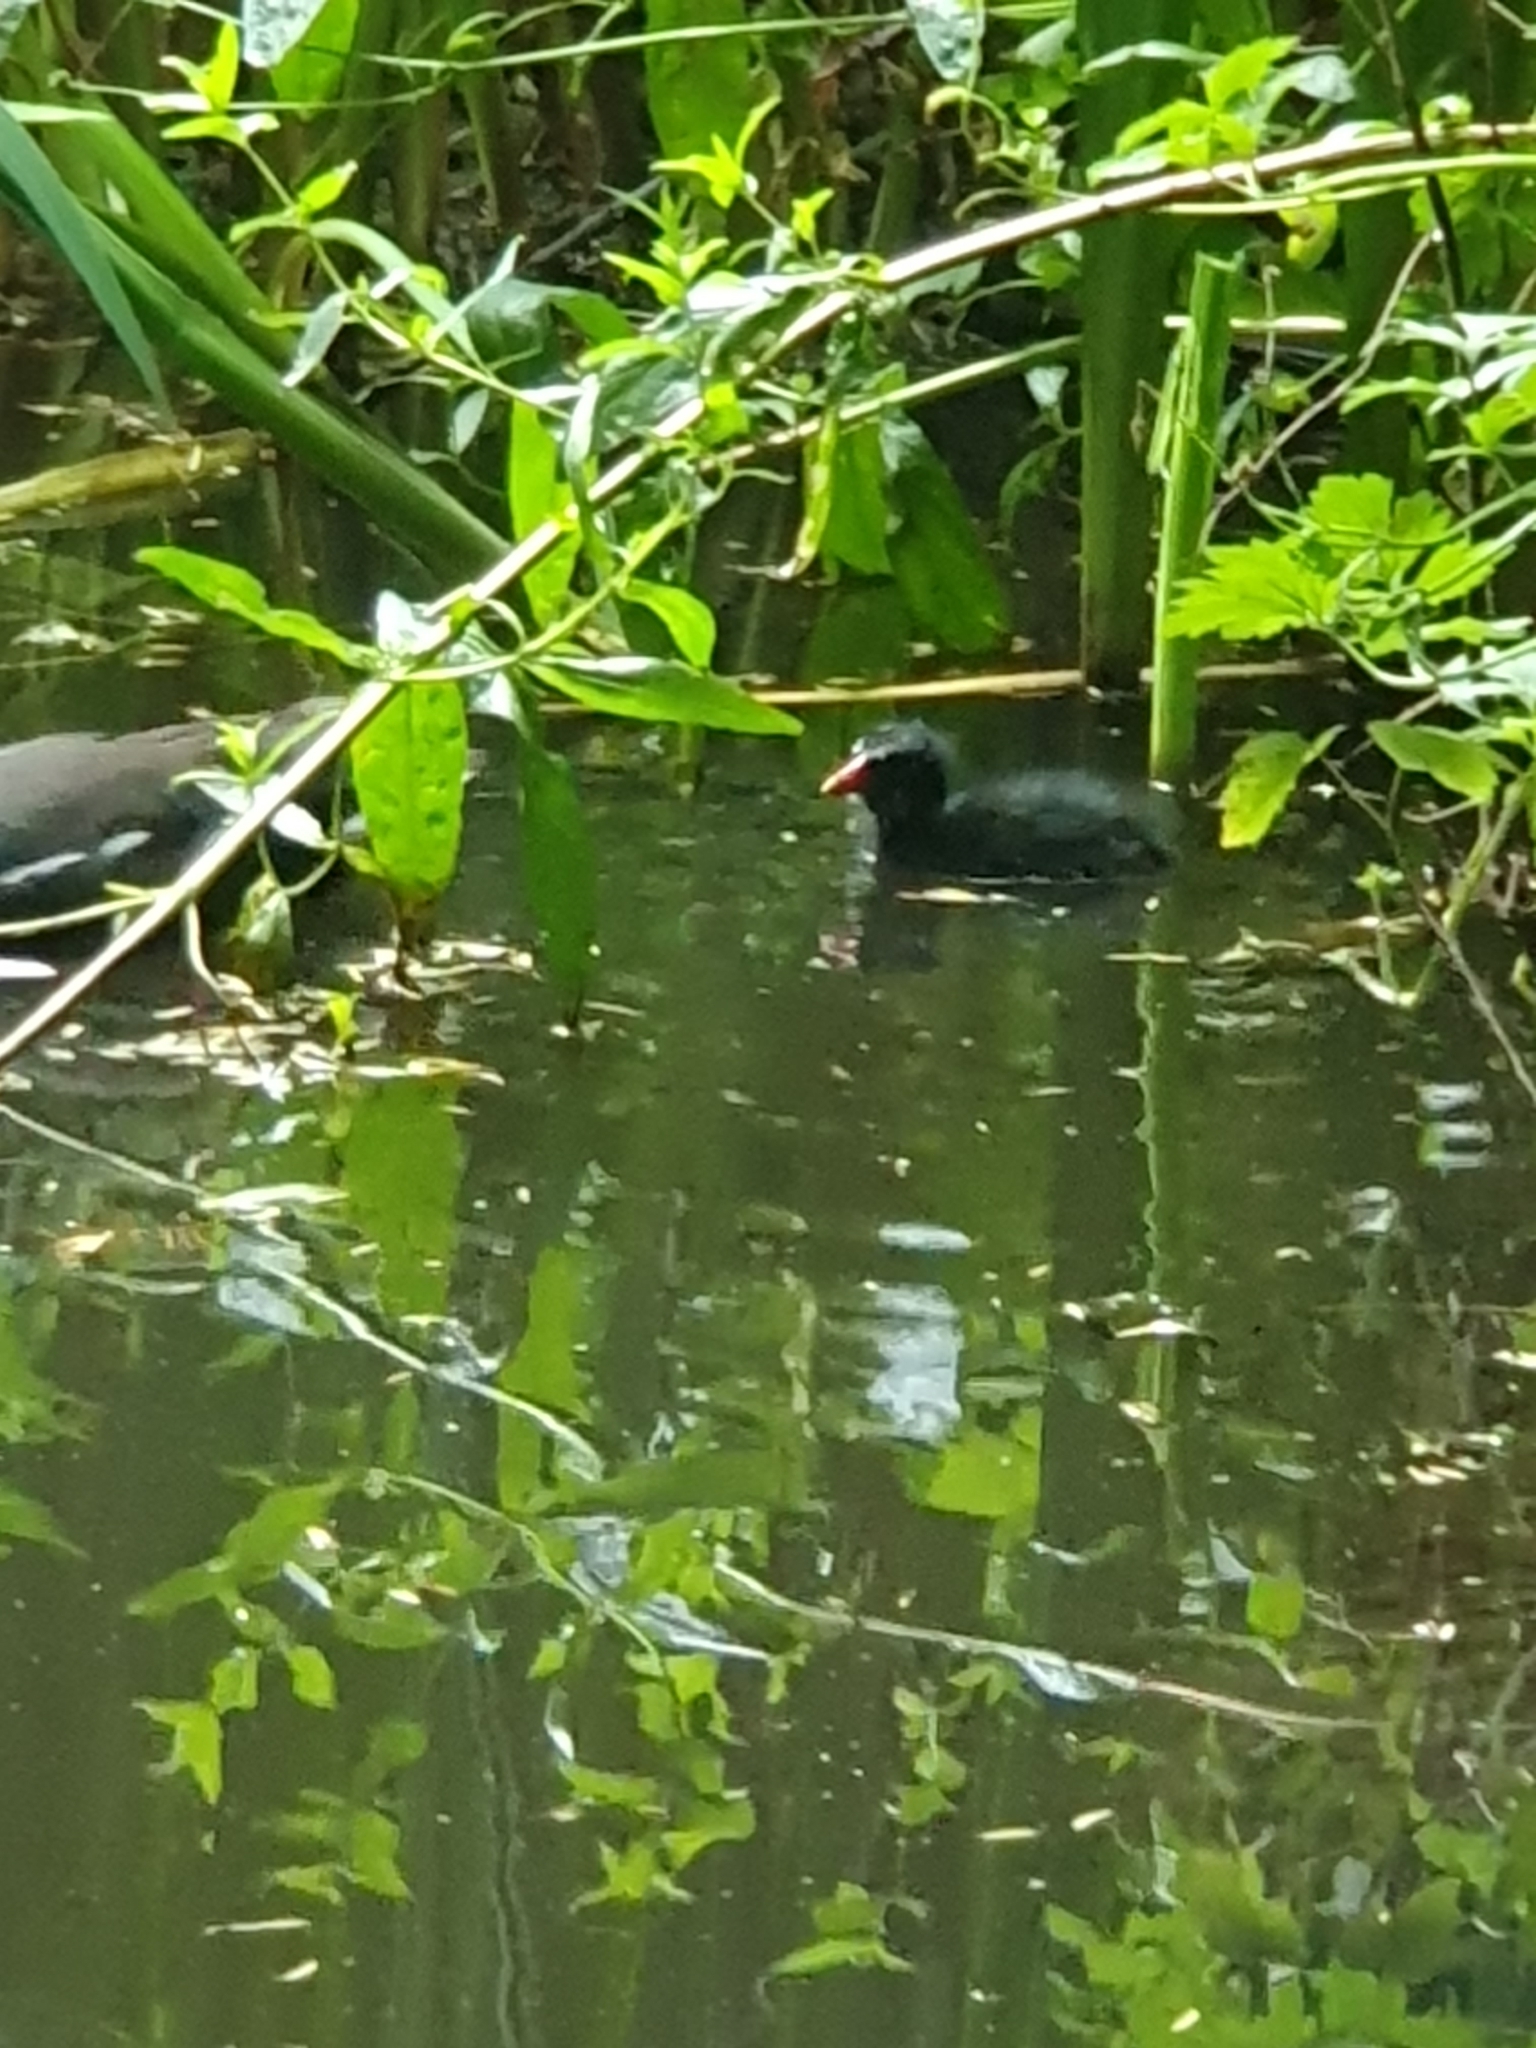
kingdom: Animalia
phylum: Chordata
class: Aves
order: Gruiformes
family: Rallidae
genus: Gallinula
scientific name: Gallinula chloropus
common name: Common moorhen
